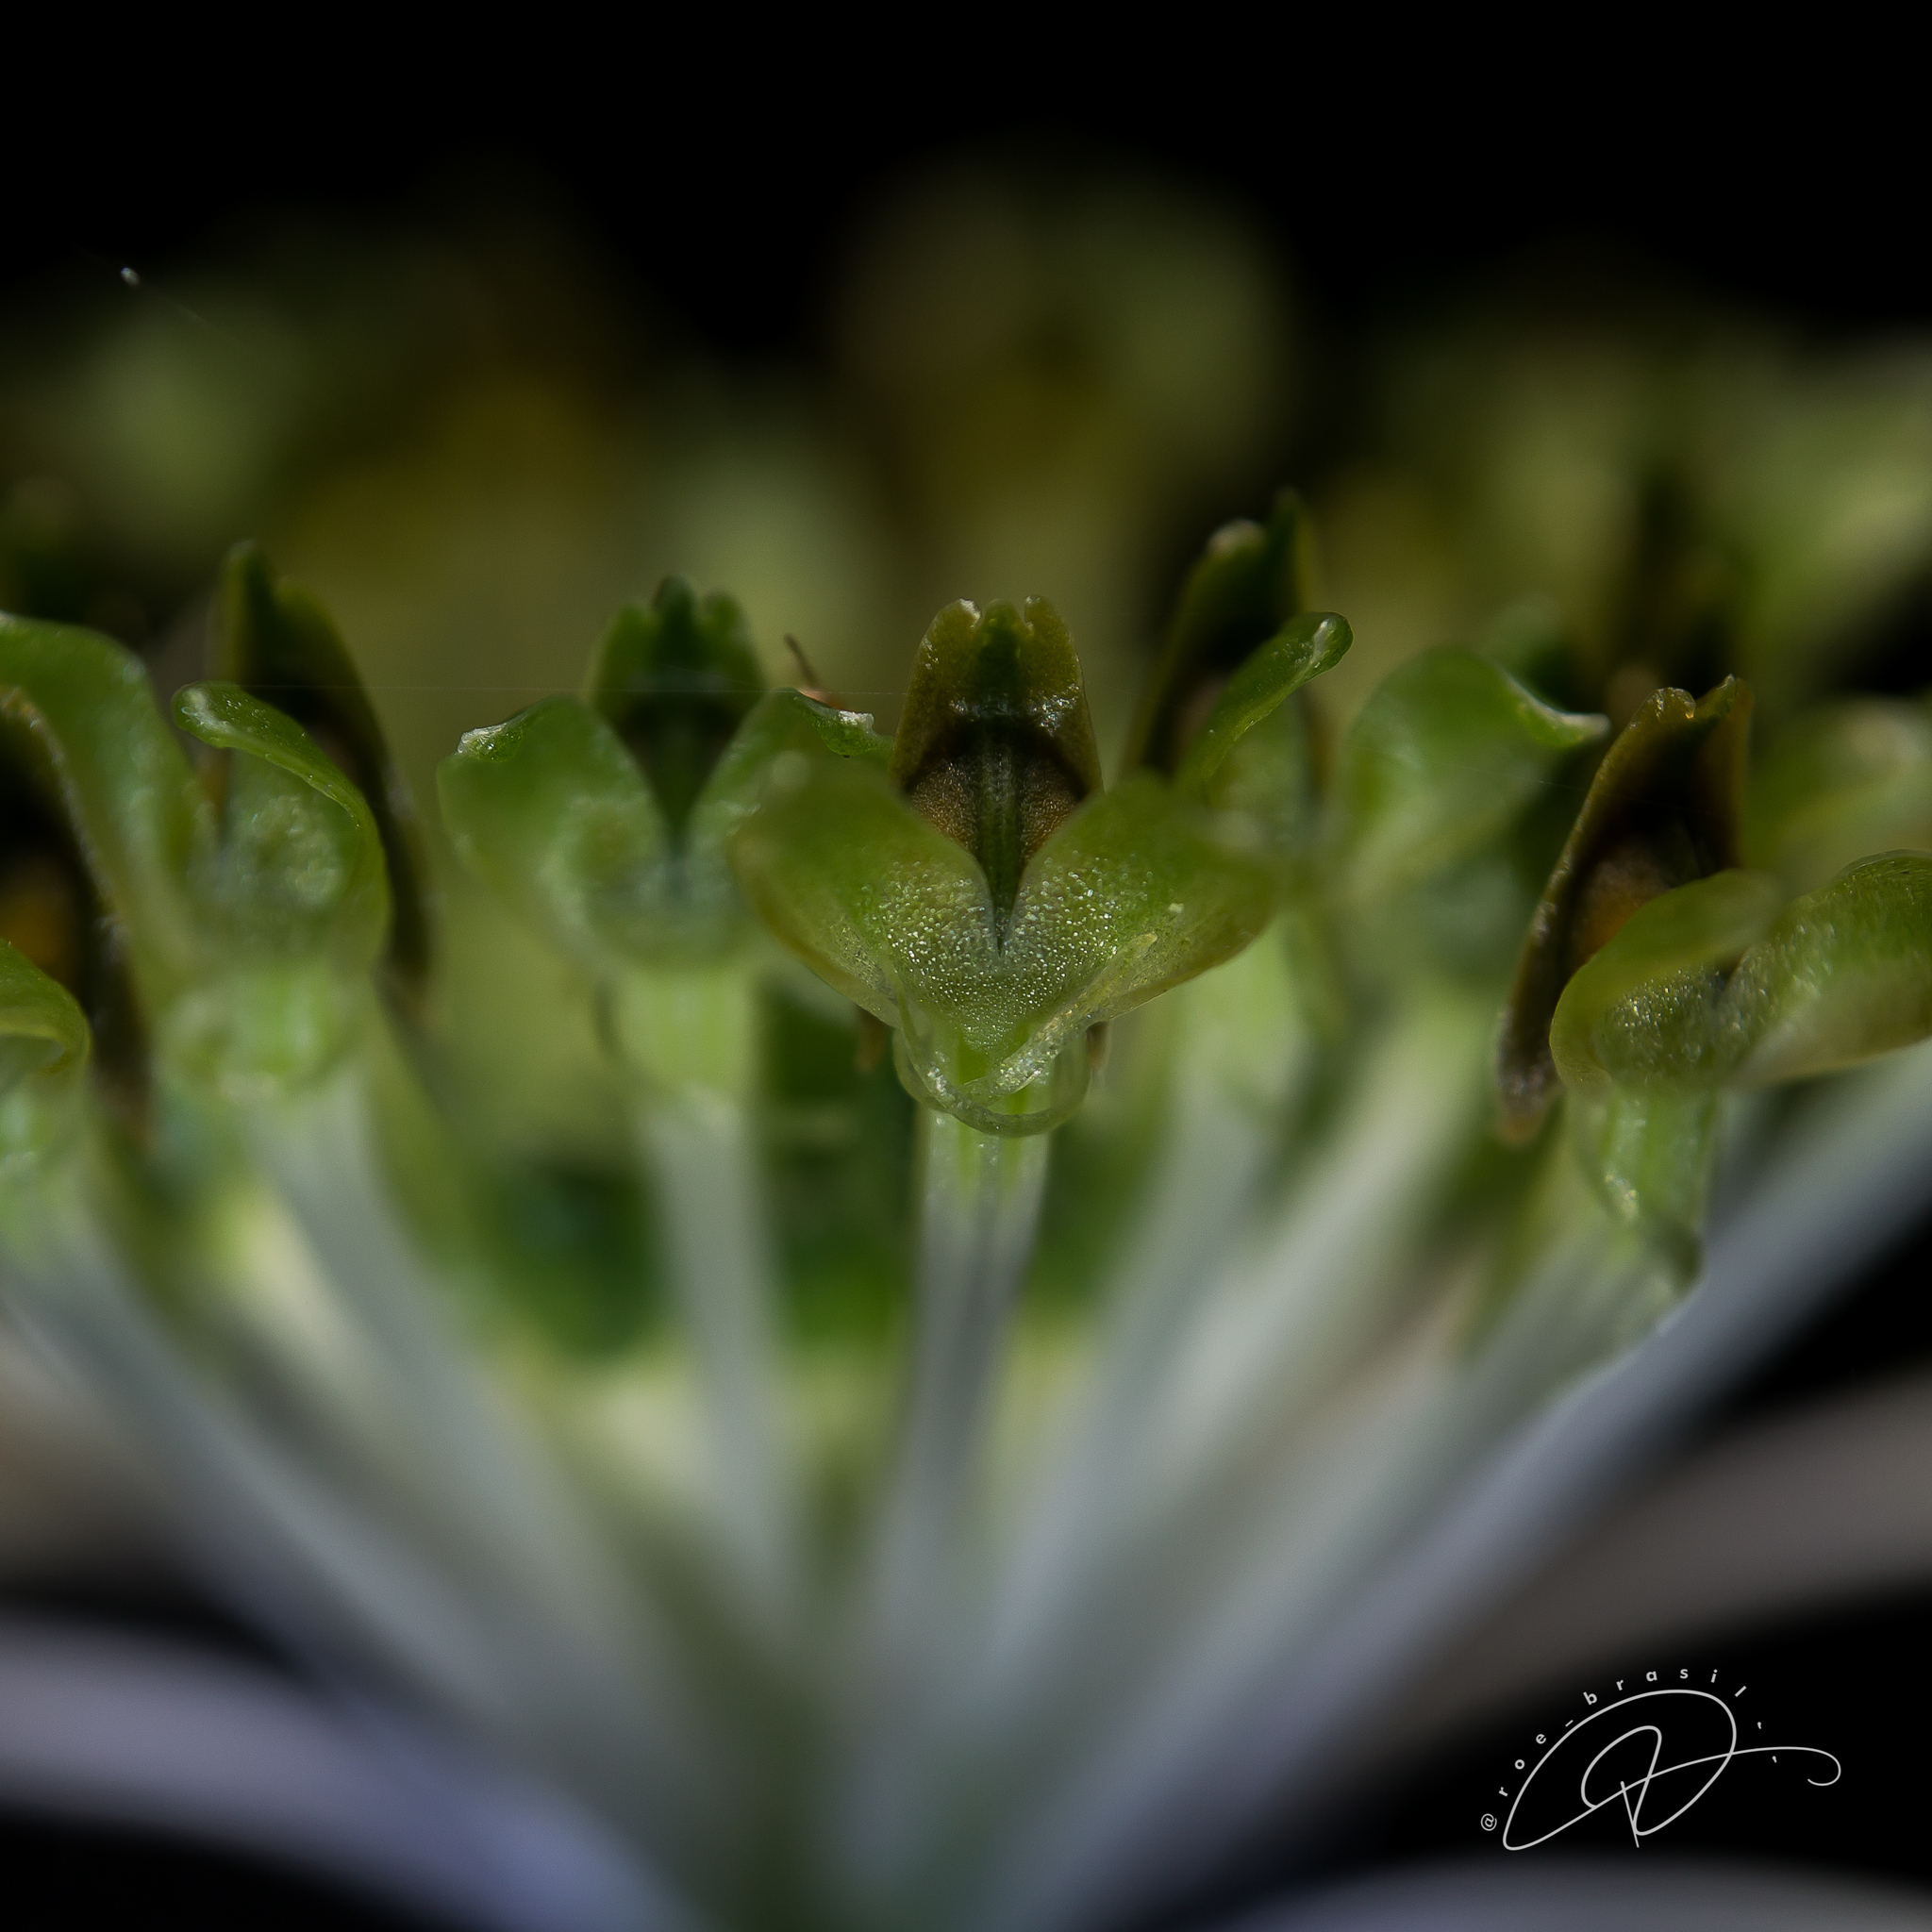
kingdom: Plantae
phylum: Tracheophyta
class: Liliopsida
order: Asparagales
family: Orchidaceae
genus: Malaxis
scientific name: Malaxis excavata
